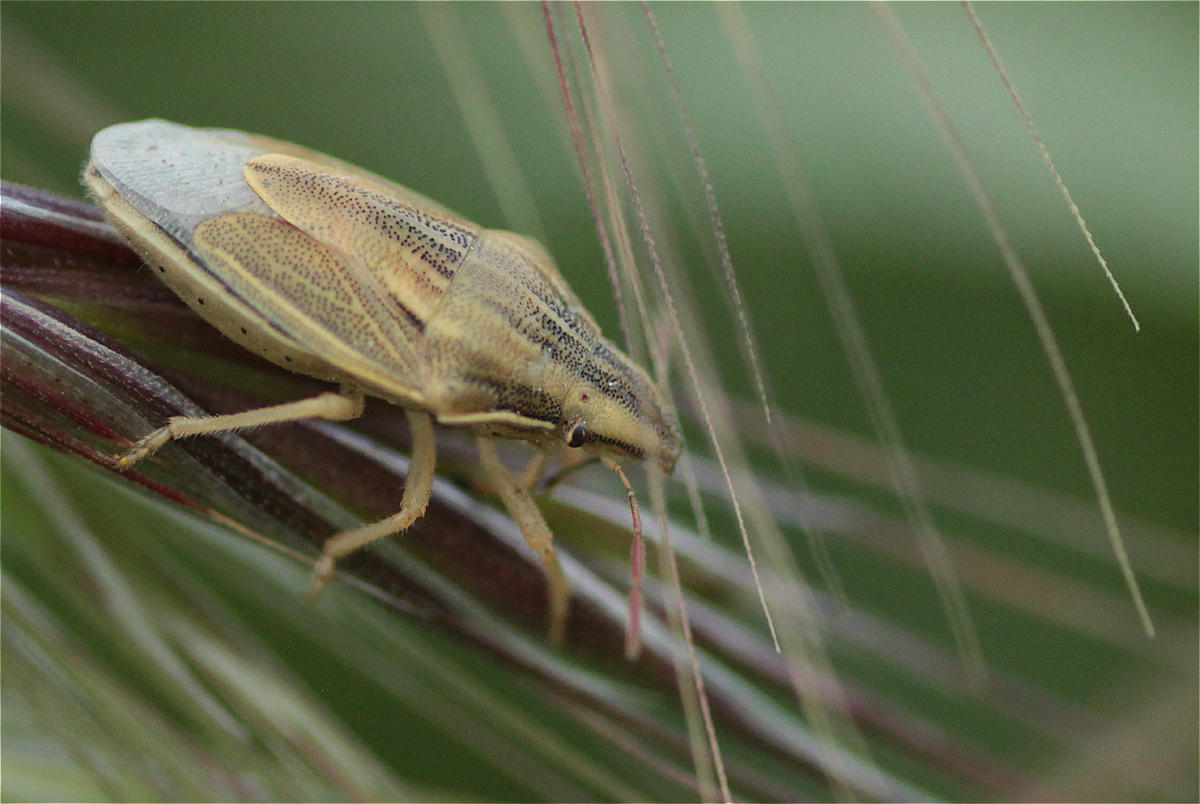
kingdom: Animalia
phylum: Arthropoda
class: Insecta
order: Hemiptera
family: Pentatomidae
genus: Aelia
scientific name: Aelia acuminata
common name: Bishop's mitre
